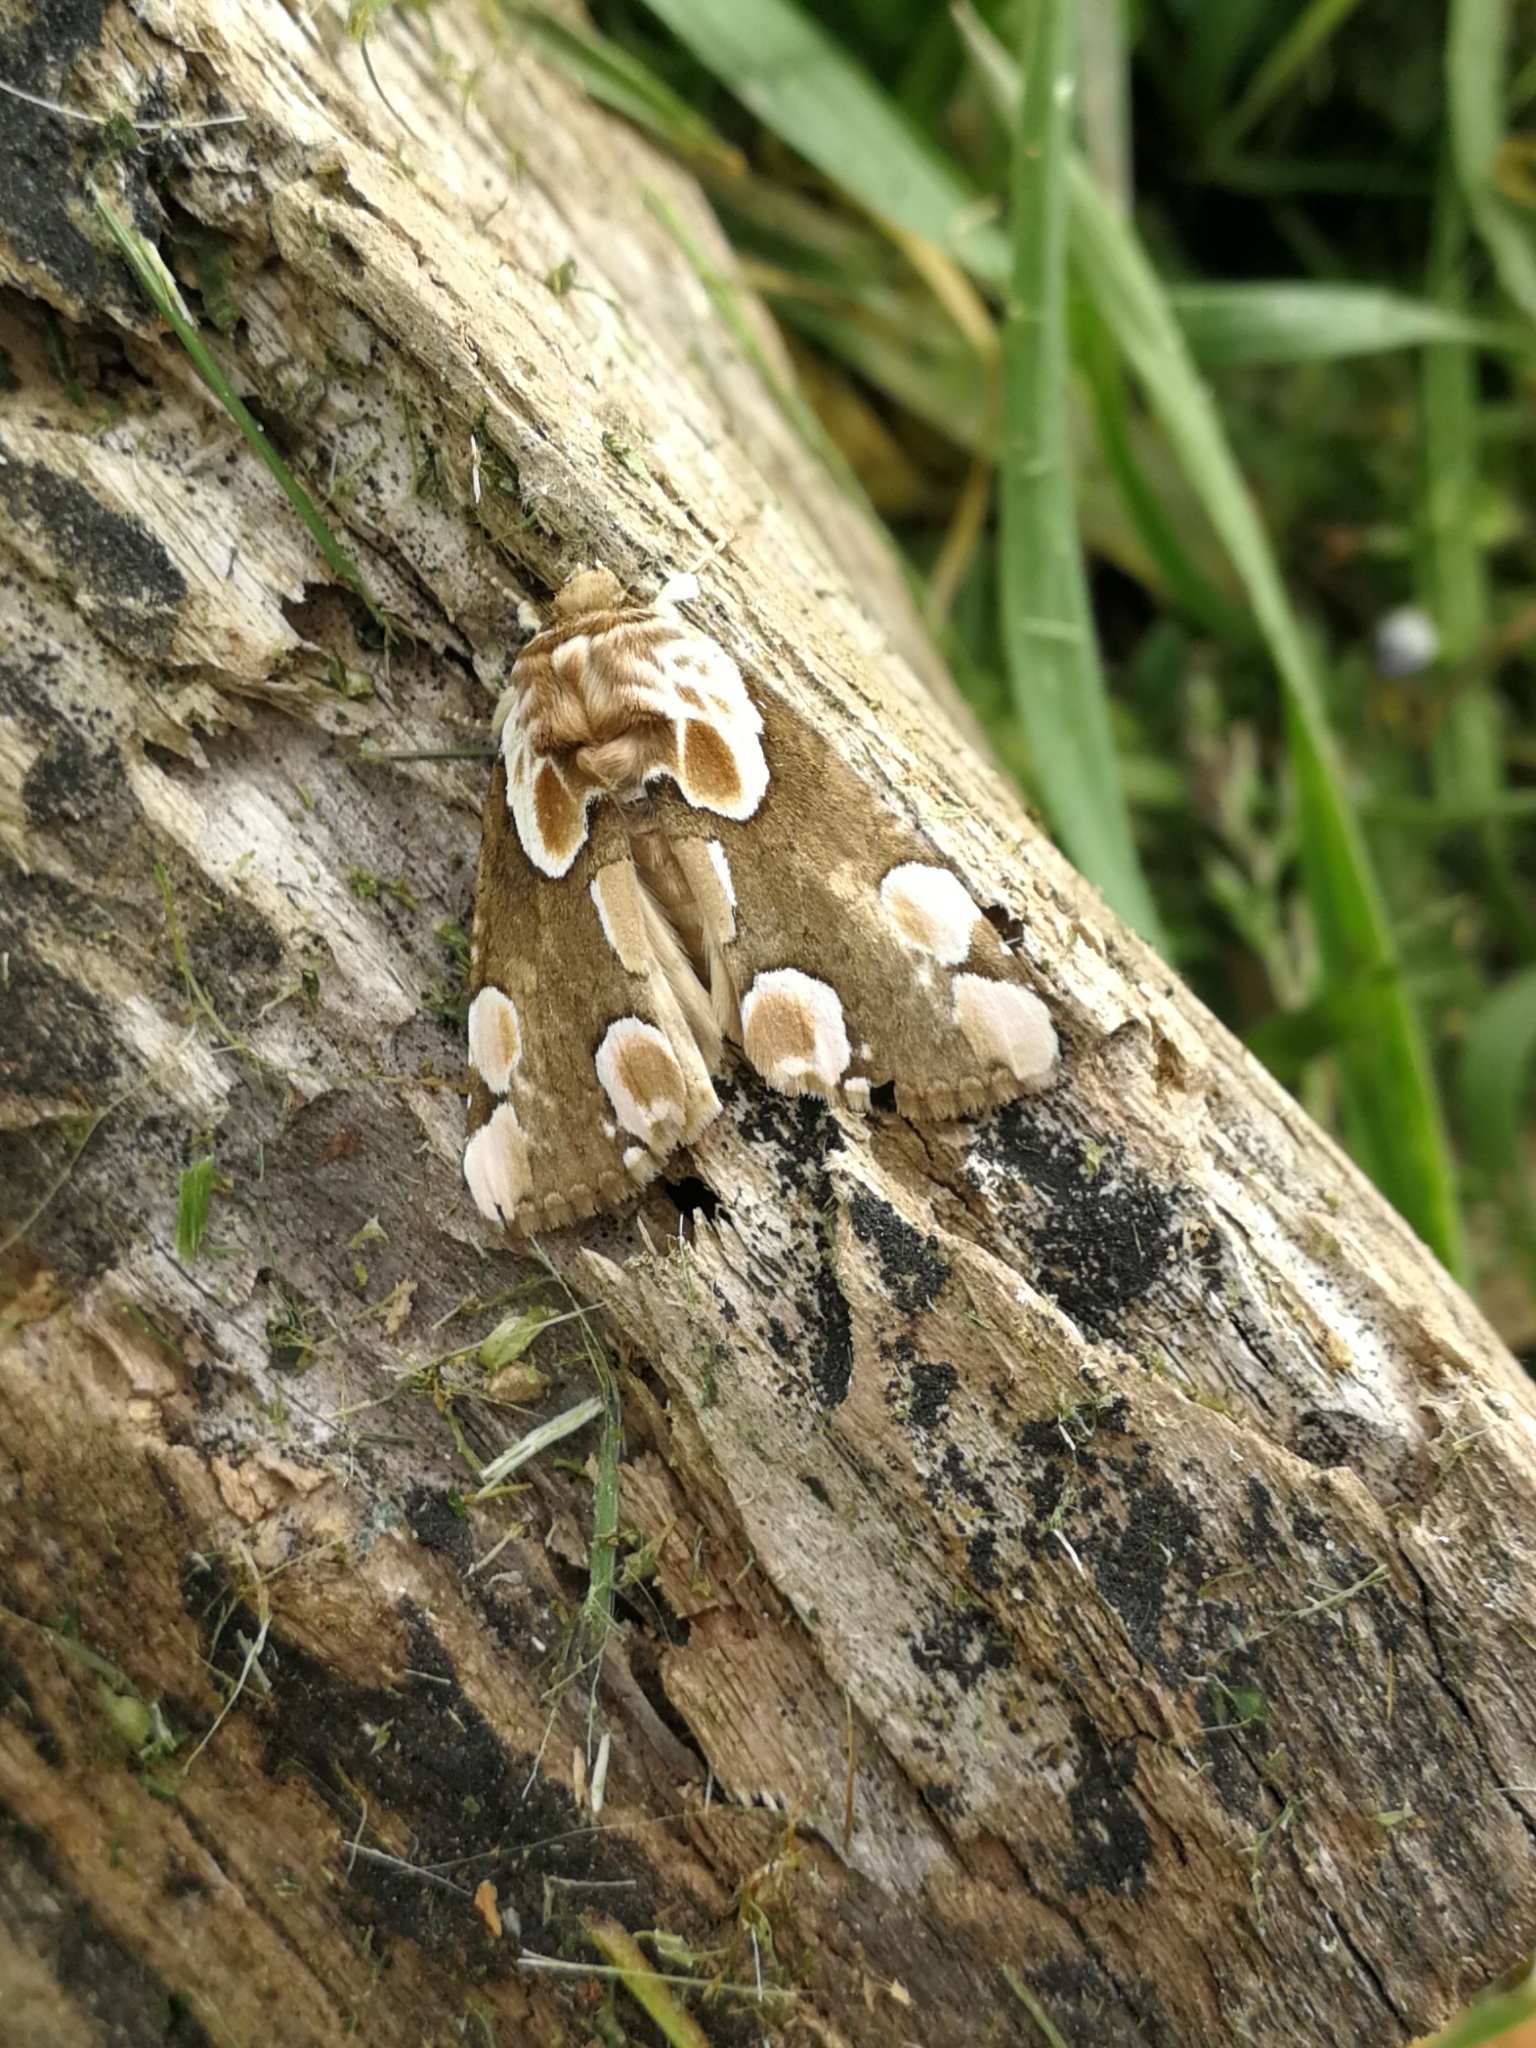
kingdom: Animalia
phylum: Arthropoda
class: Insecta
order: Lepidoptera
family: Drepanidae
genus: Thyatira
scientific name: Thyatira batis
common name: Peach blossom
